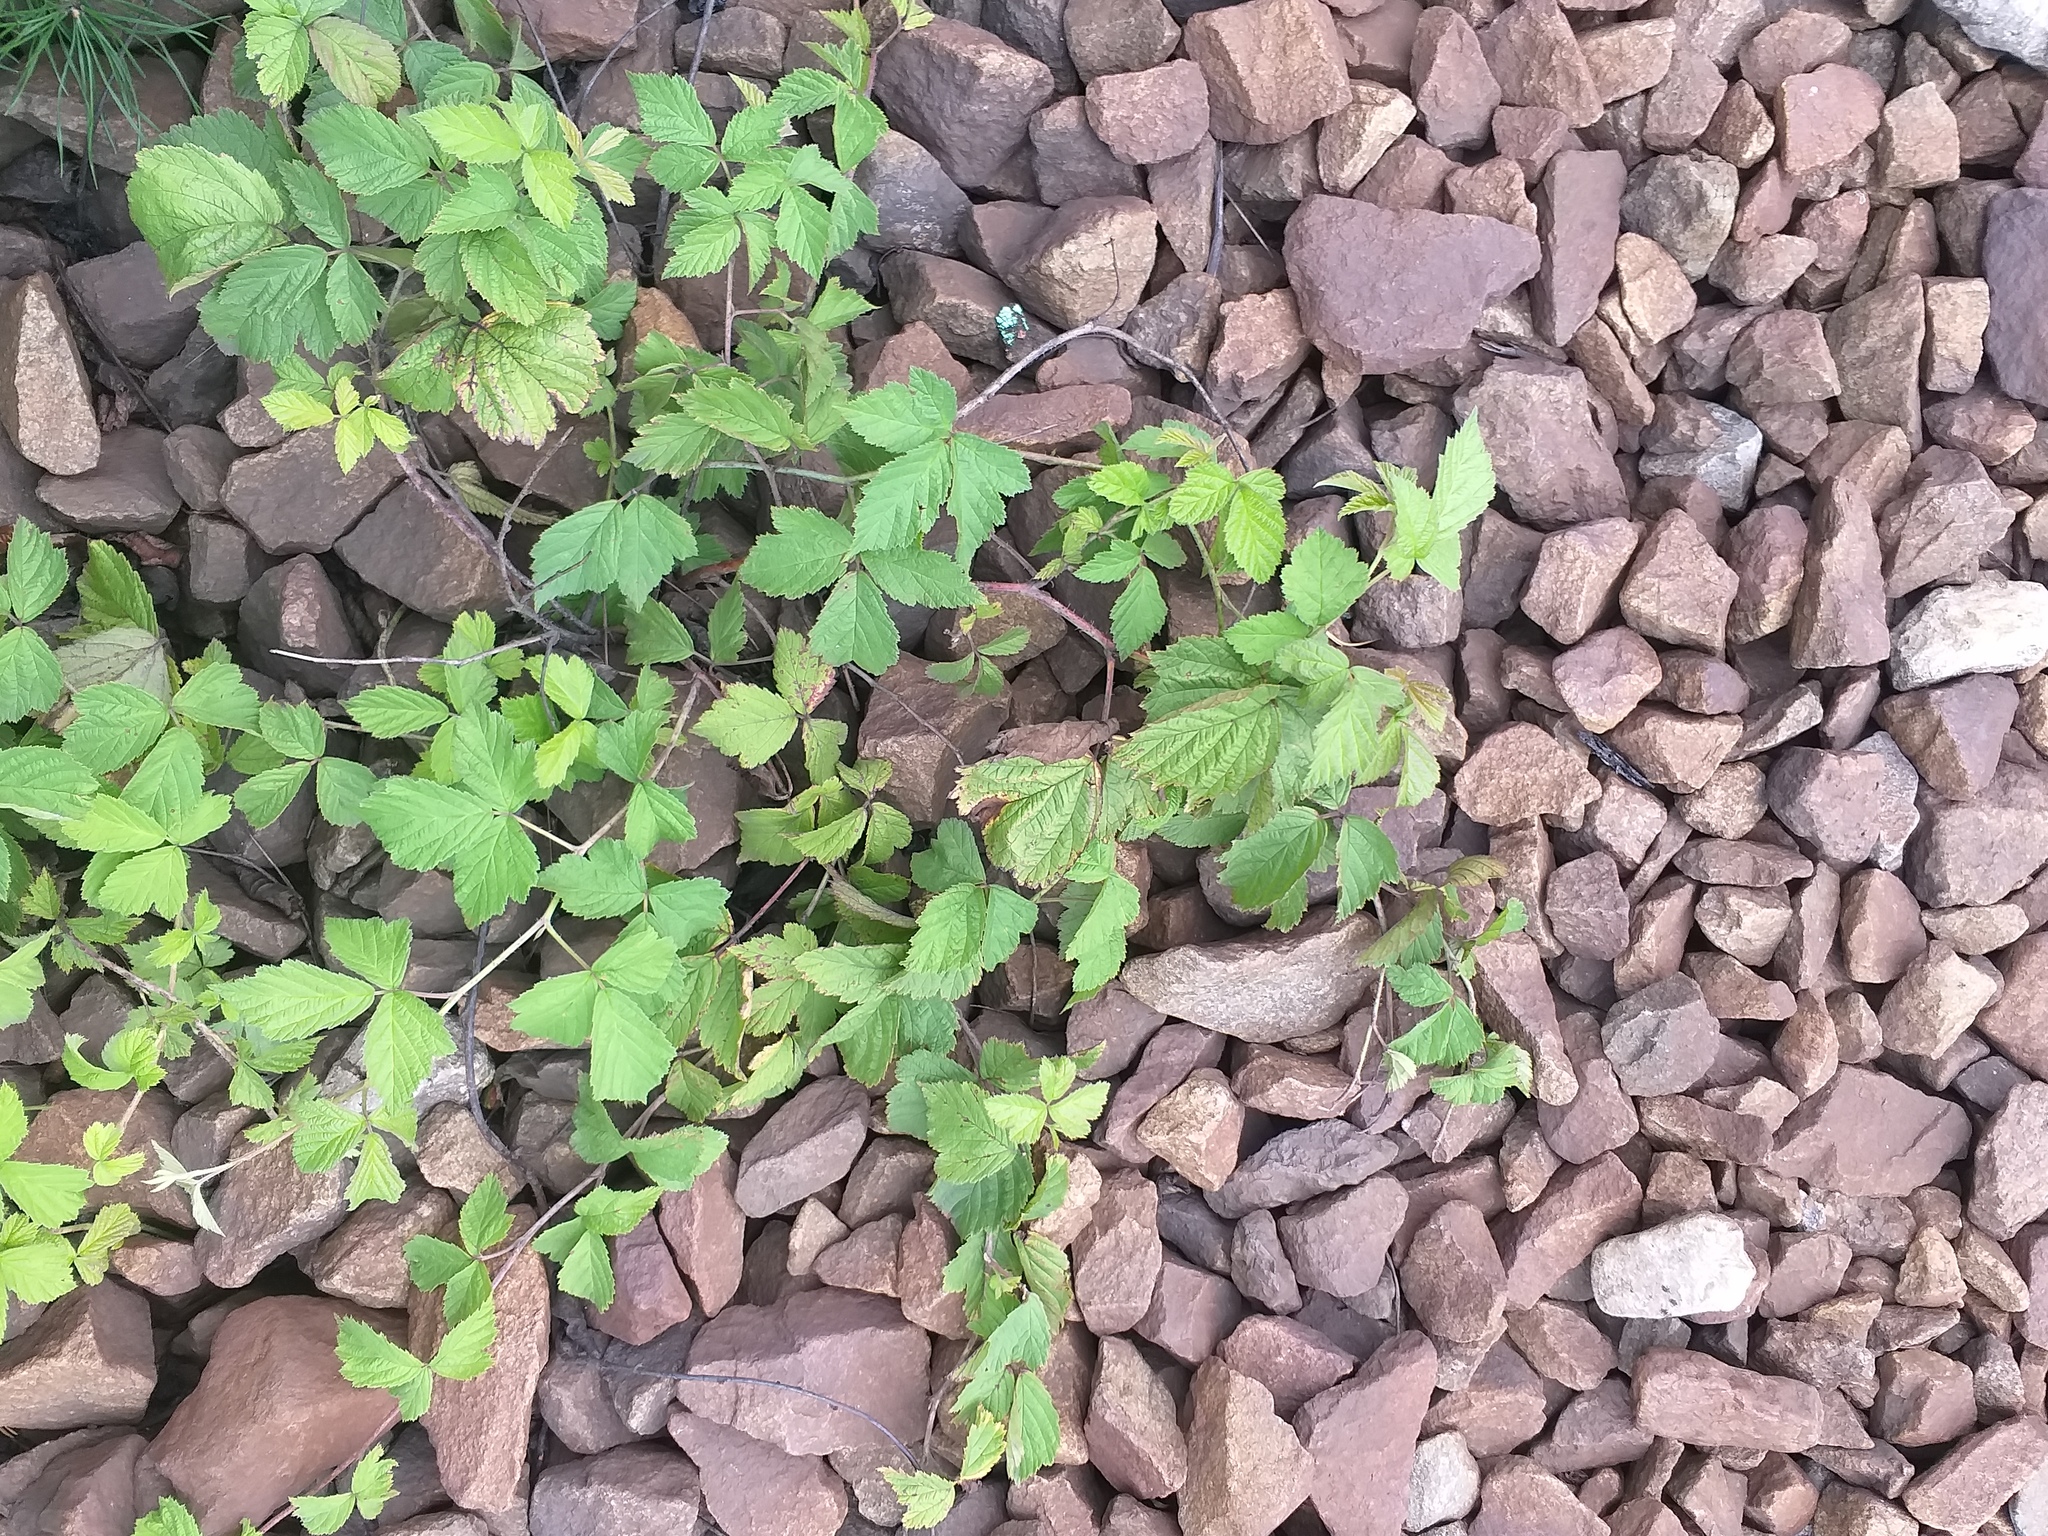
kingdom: Plantae
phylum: Tracheophyta
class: Magnoliopsida
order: Rosales
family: Rosaceae
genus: Rubus
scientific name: Rubus caesius
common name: Dewberry
